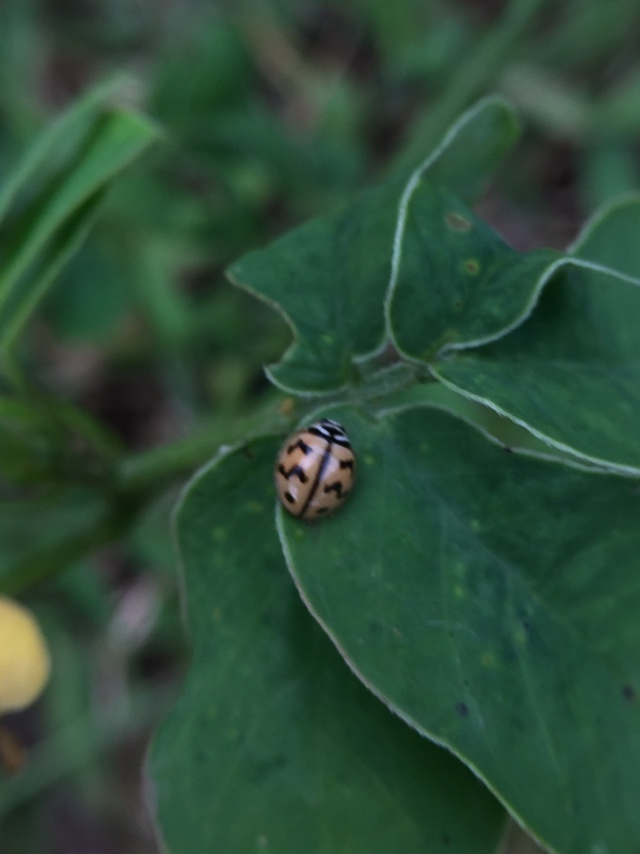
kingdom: Animalia
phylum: Arthropoda
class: Insecta
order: Coleoptera
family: Coccinellidae
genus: Cheilomenes
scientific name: Cheilomenes sexmaculata
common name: Ladybird beetle
